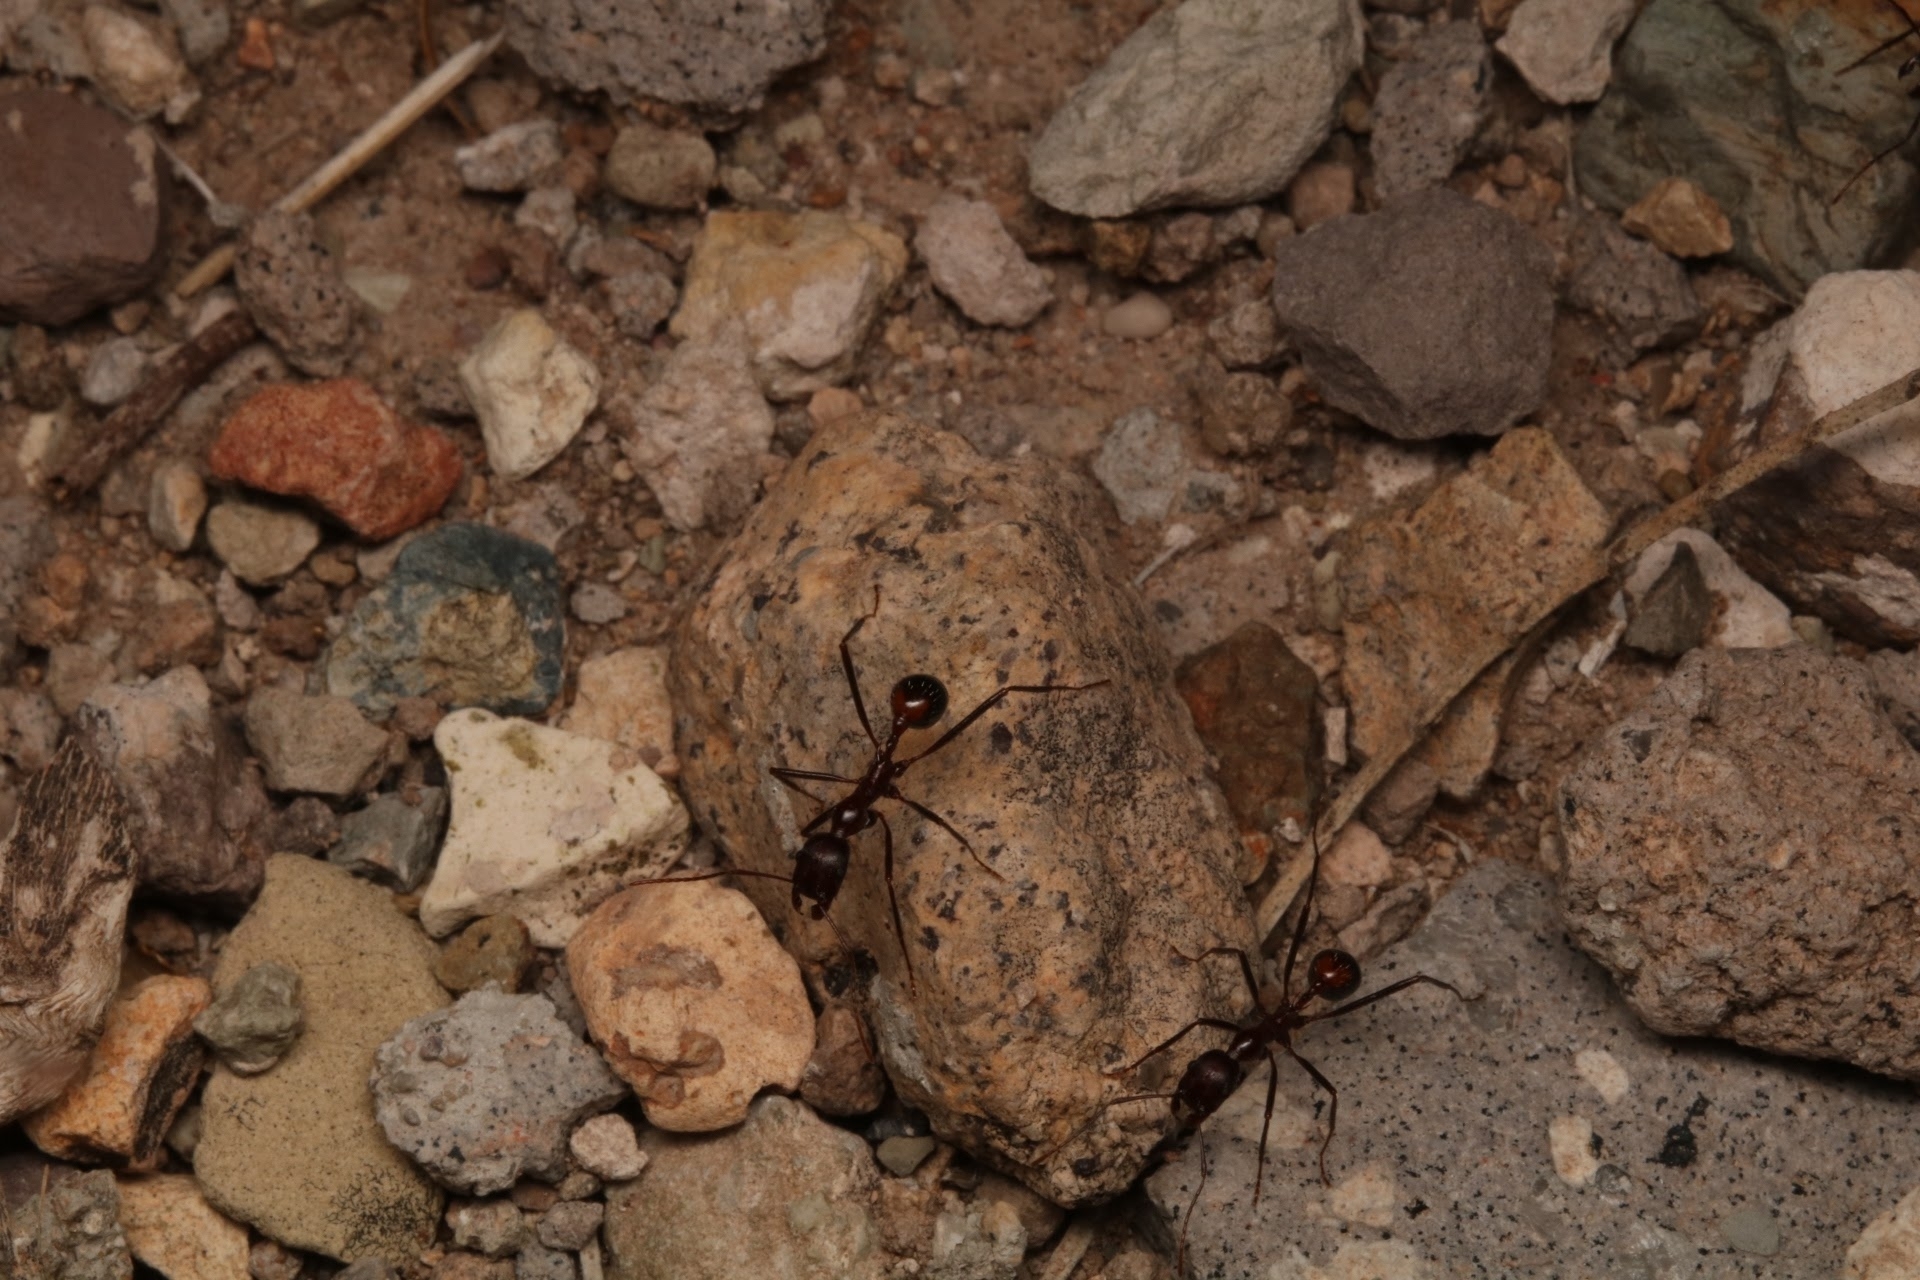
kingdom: Animalia
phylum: Arthropoda
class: Insecta
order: Hymenoptera
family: Formicidae
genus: Novomessor
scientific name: Novomessor cockerelli
